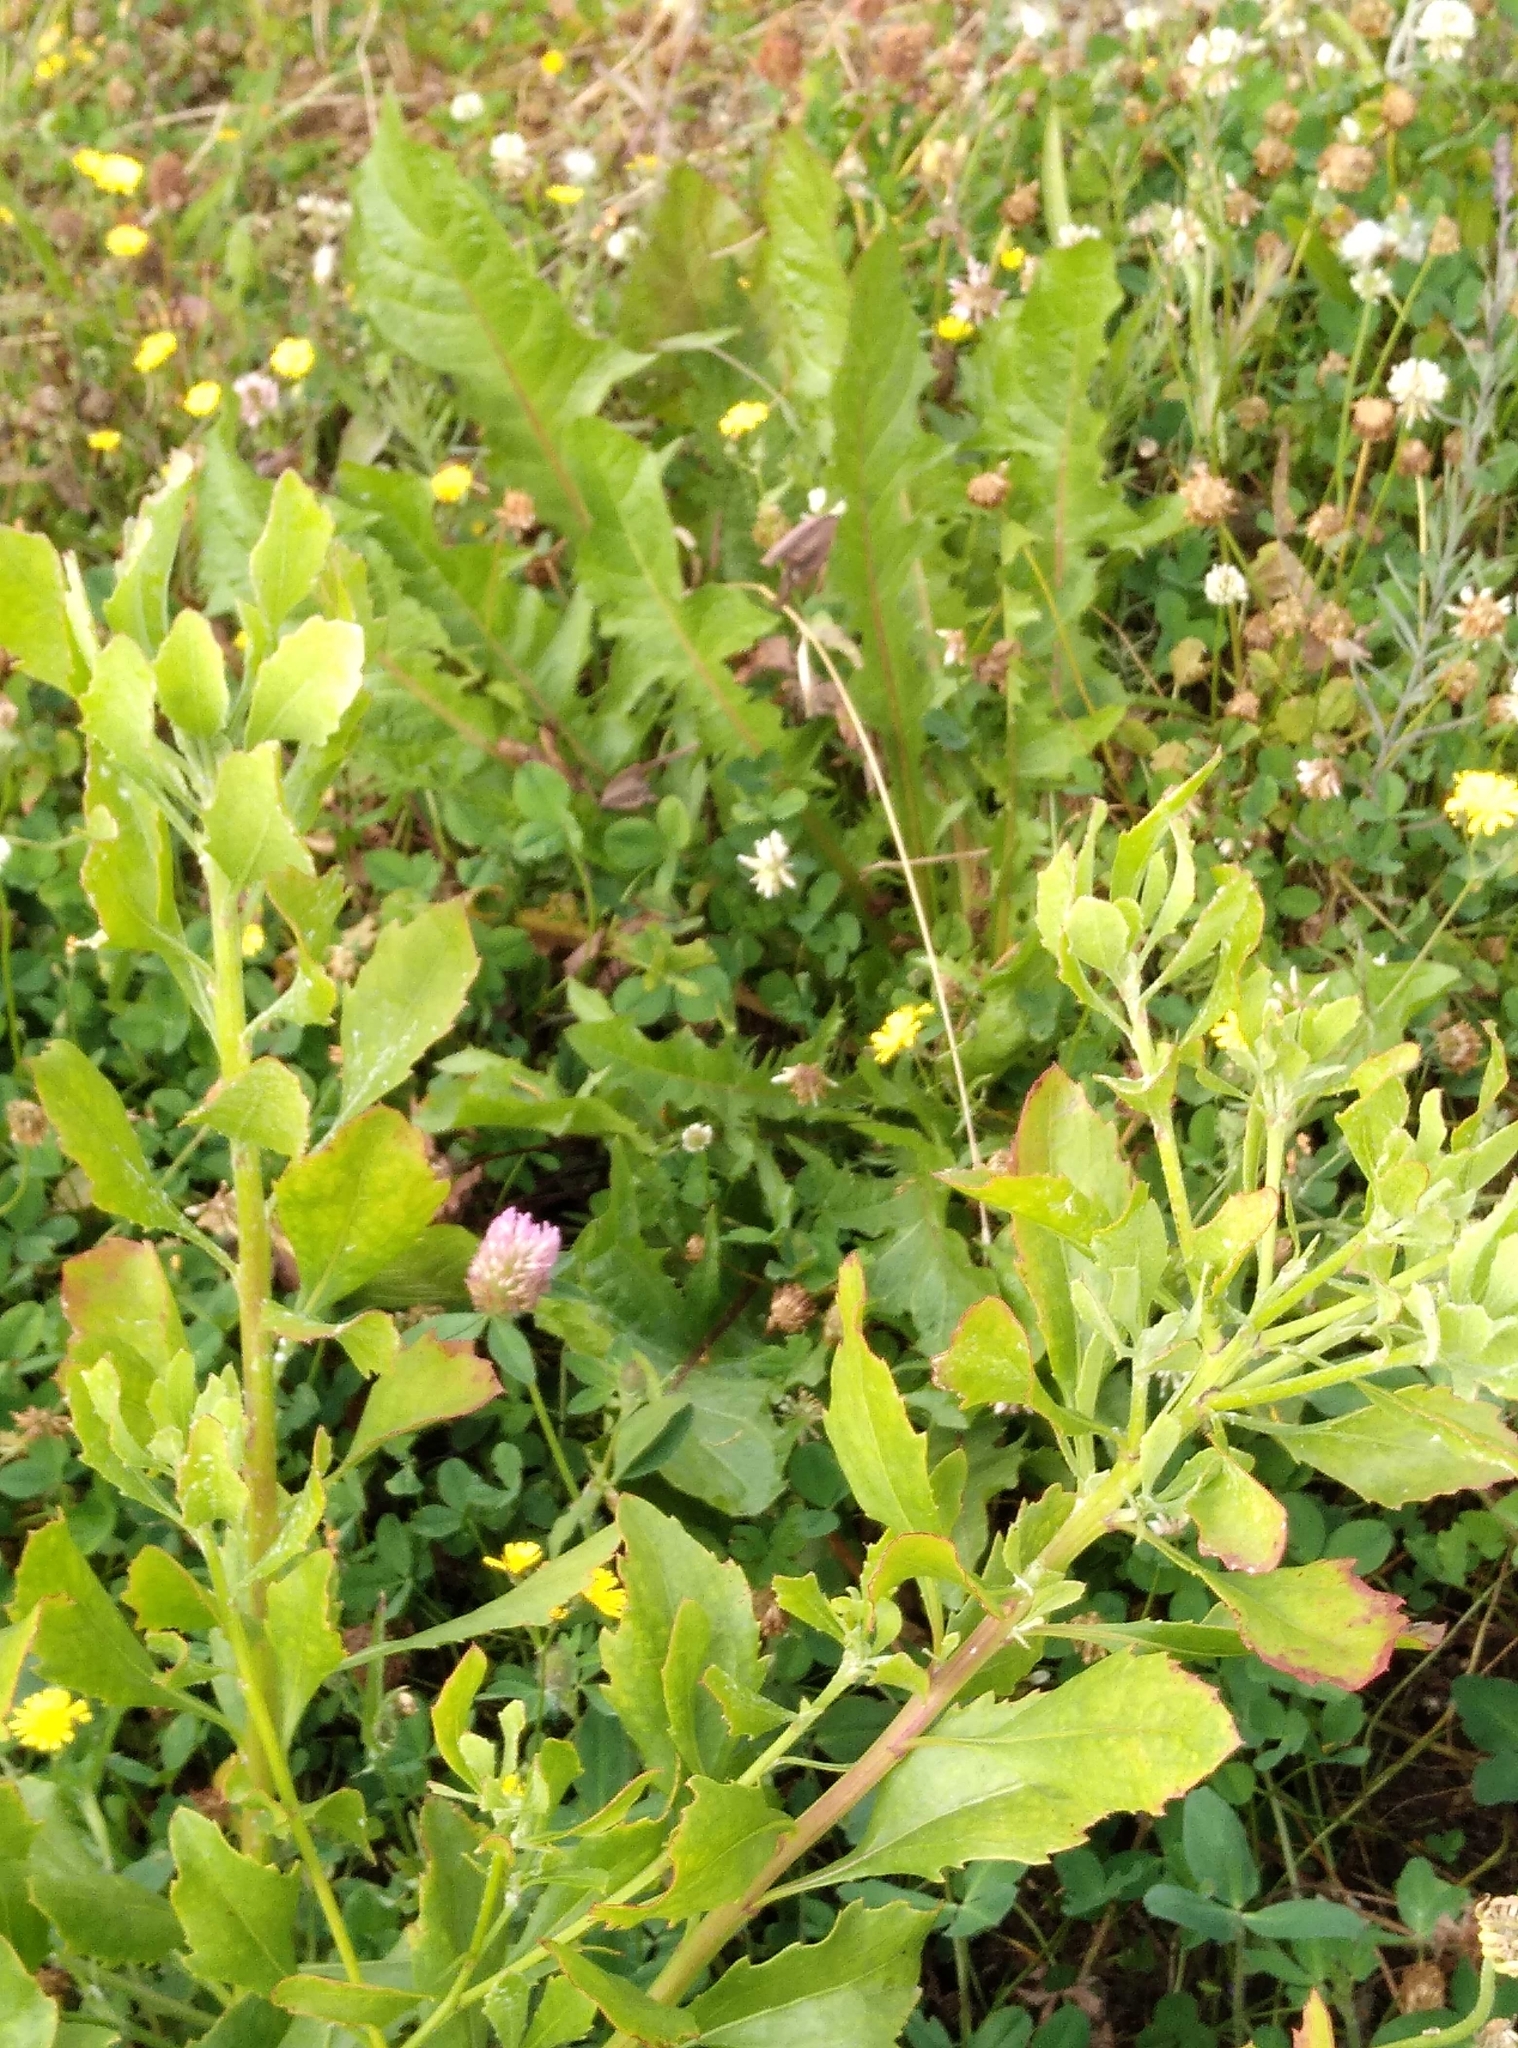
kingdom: Plantae
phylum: Tracheophyta
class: Magnoliopsida
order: Asterales
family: Asteraceae
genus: Taraxacum
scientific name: Taraxacum officinale
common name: Common dandelion
